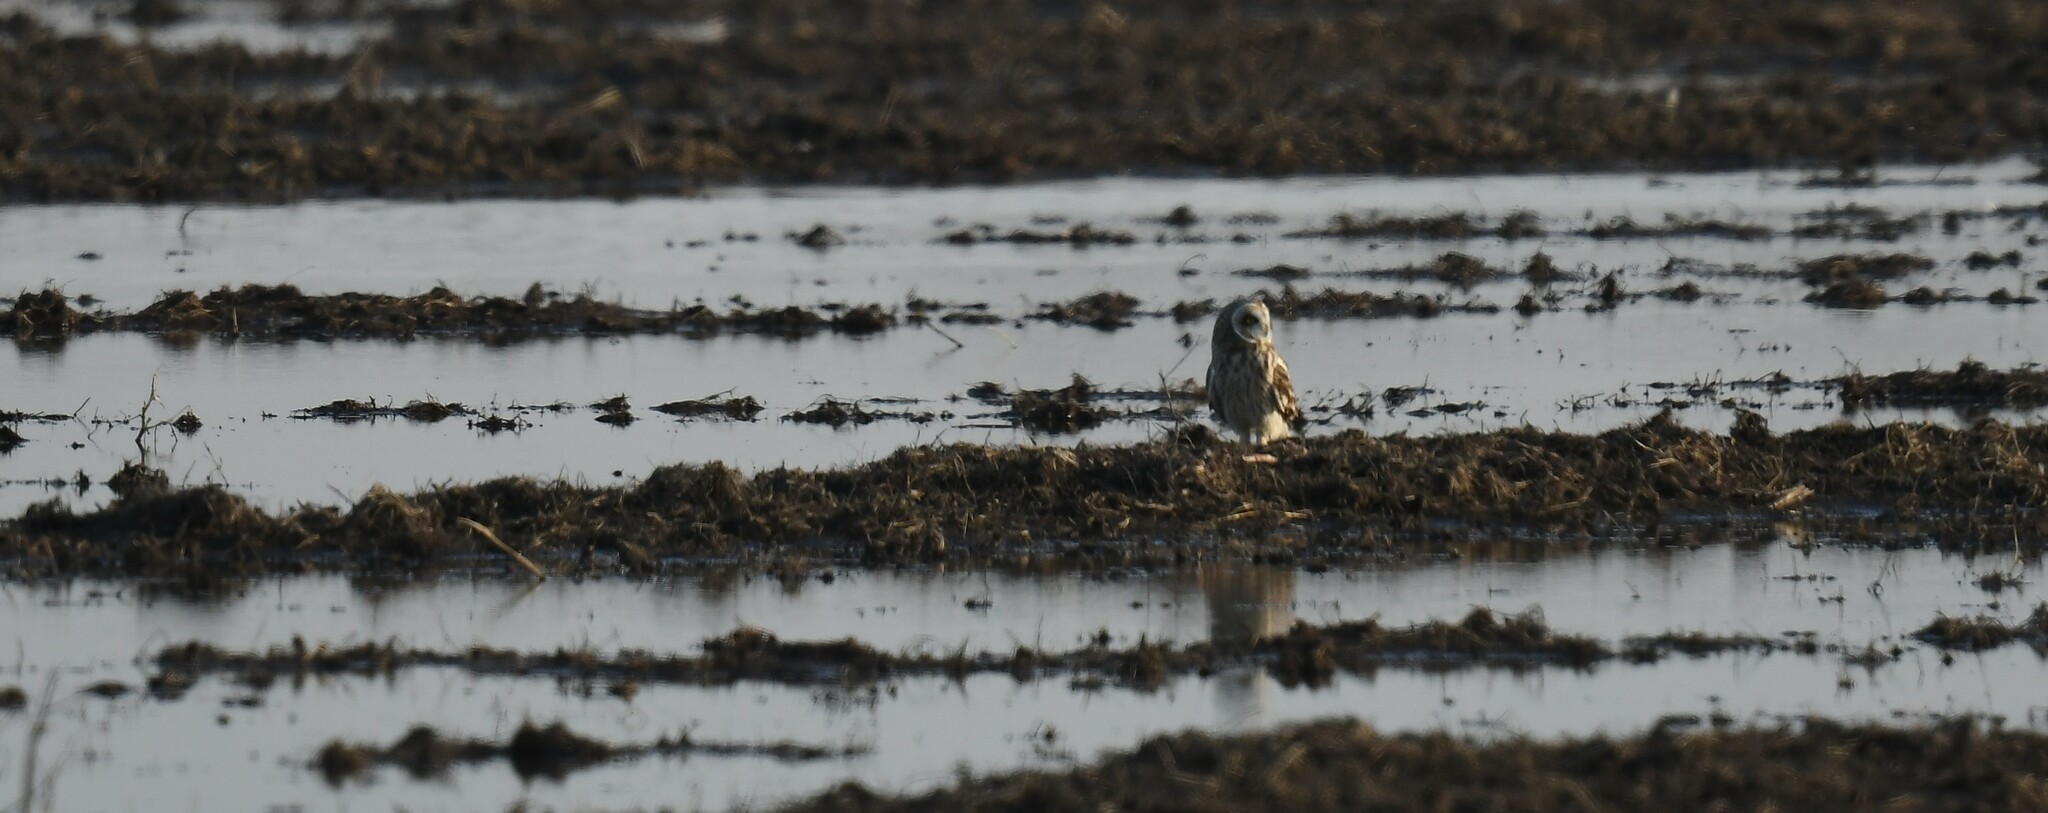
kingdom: Animalia
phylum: Chordata
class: Aves
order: Strigiformes
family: Strigidae
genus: Asio
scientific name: Asio flammeus
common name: Short-eared owl
